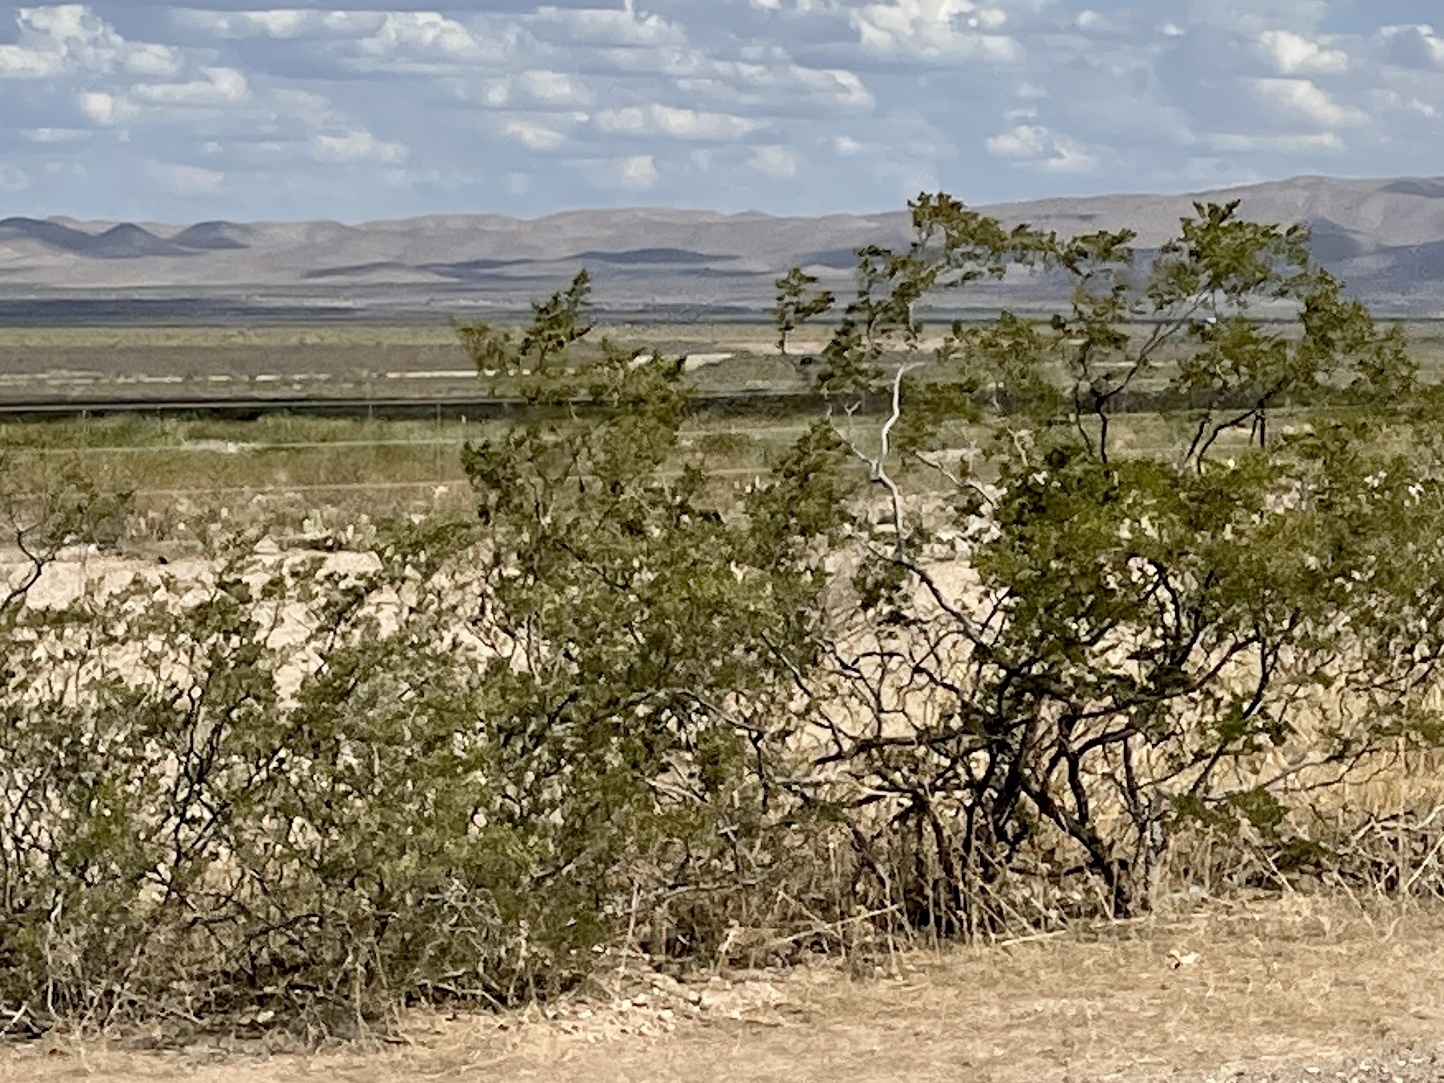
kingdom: Plantae
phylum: Tracheophyta
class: Magnoliopsida
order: Zygophyllales
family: Zygophyllaceae
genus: Larrea
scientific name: Larrea tridentata
